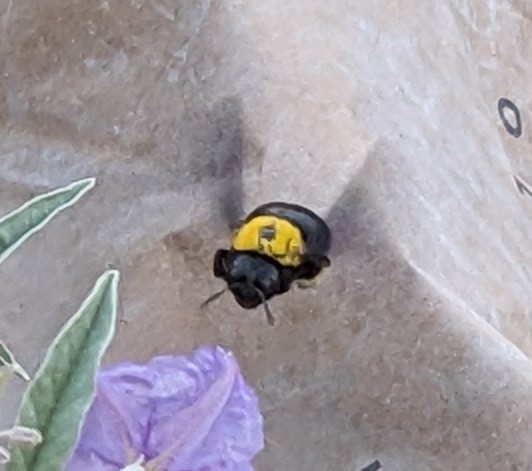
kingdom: Animalia
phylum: Arthropoda
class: Insecta
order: Hymenoptera
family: Apidae
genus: Xylocopa
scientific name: Xylocopa pubescens
